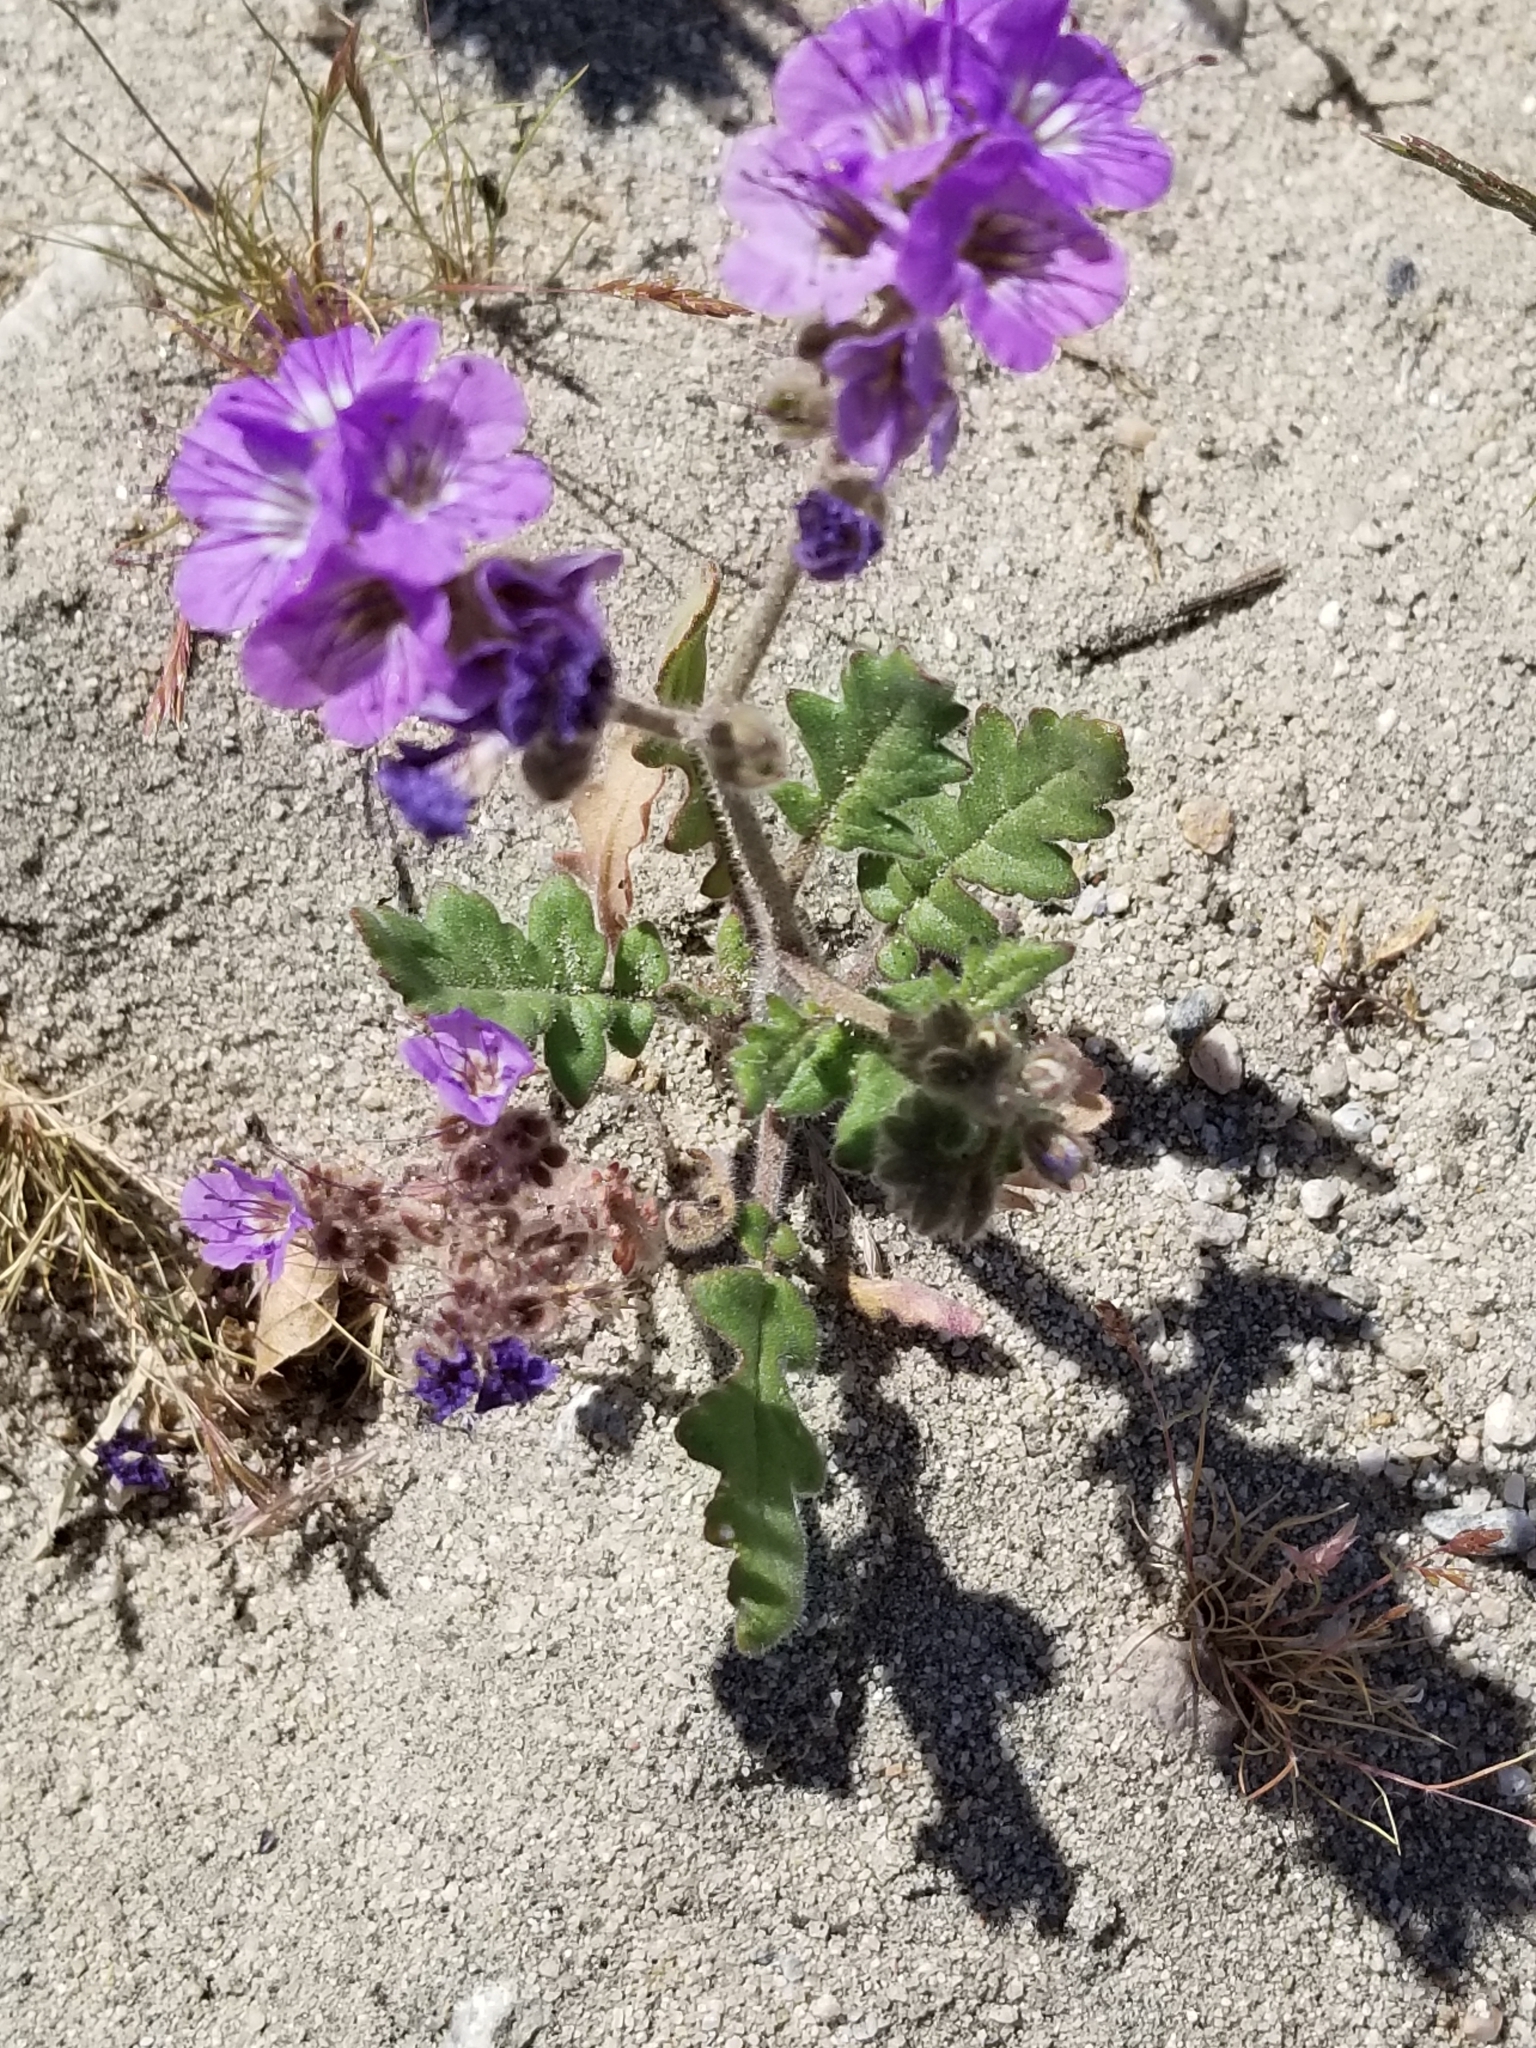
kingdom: Plantae
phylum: Tracheophyta
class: Magnoliopsida
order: Boraginales
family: Hydrophyllaceae
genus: Phacelia
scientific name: Phacelia crenulata
